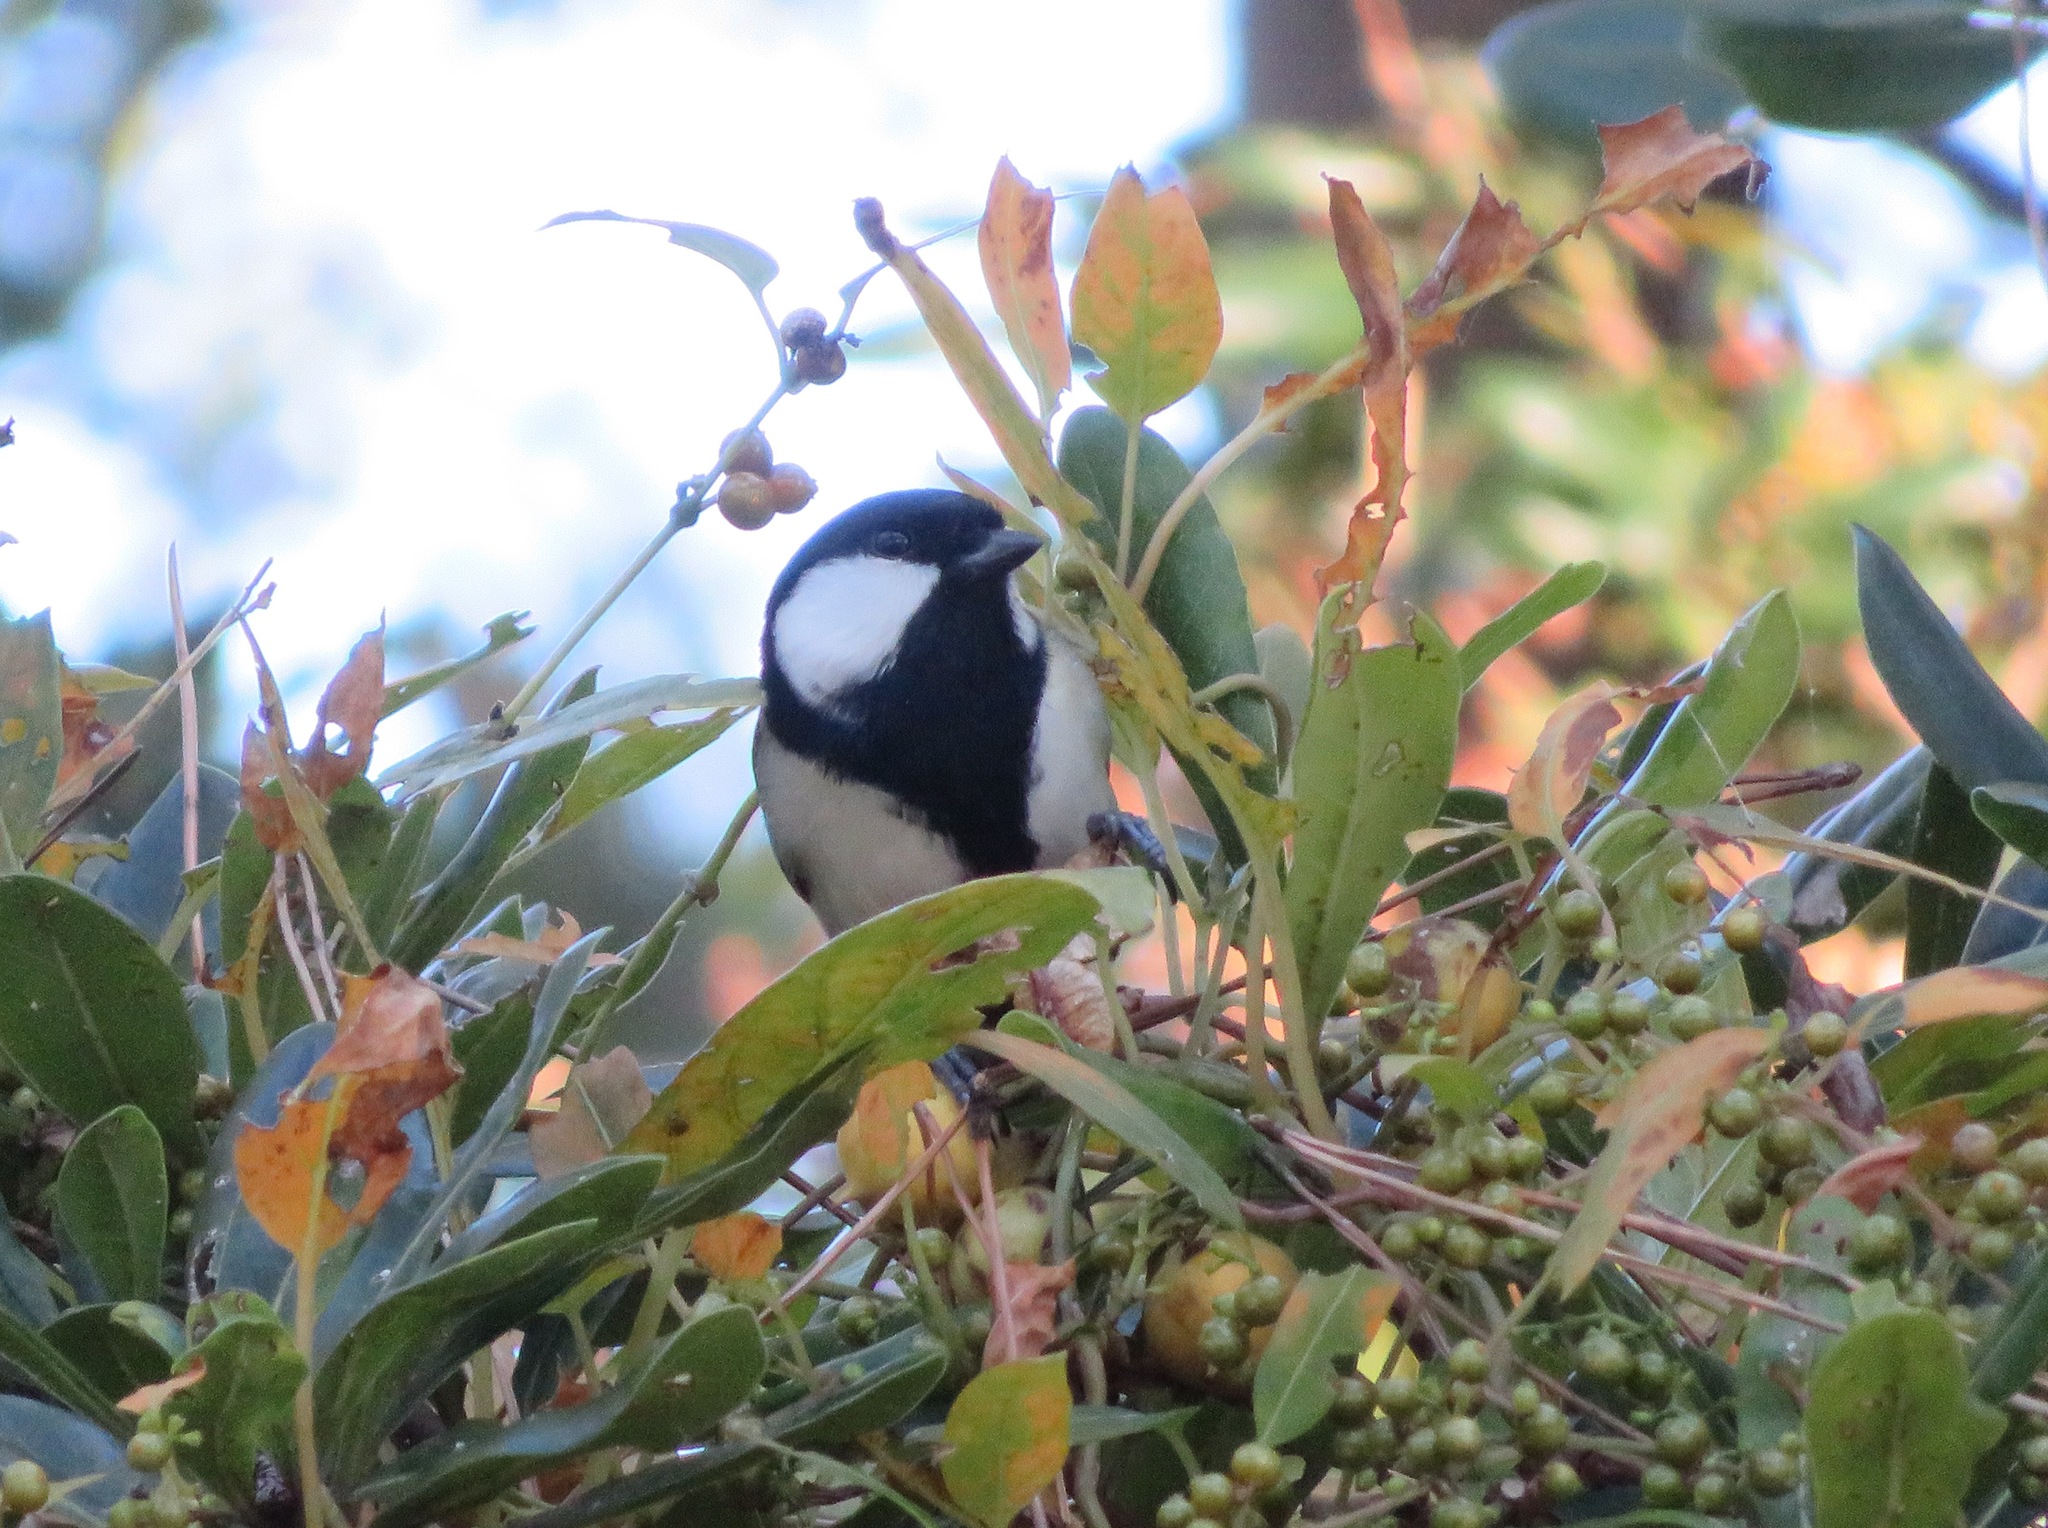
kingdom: Animalia
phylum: Chordata
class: Aves
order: Passeriformes
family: Paridae
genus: Parus
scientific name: Parus minor
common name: Japanese tit
